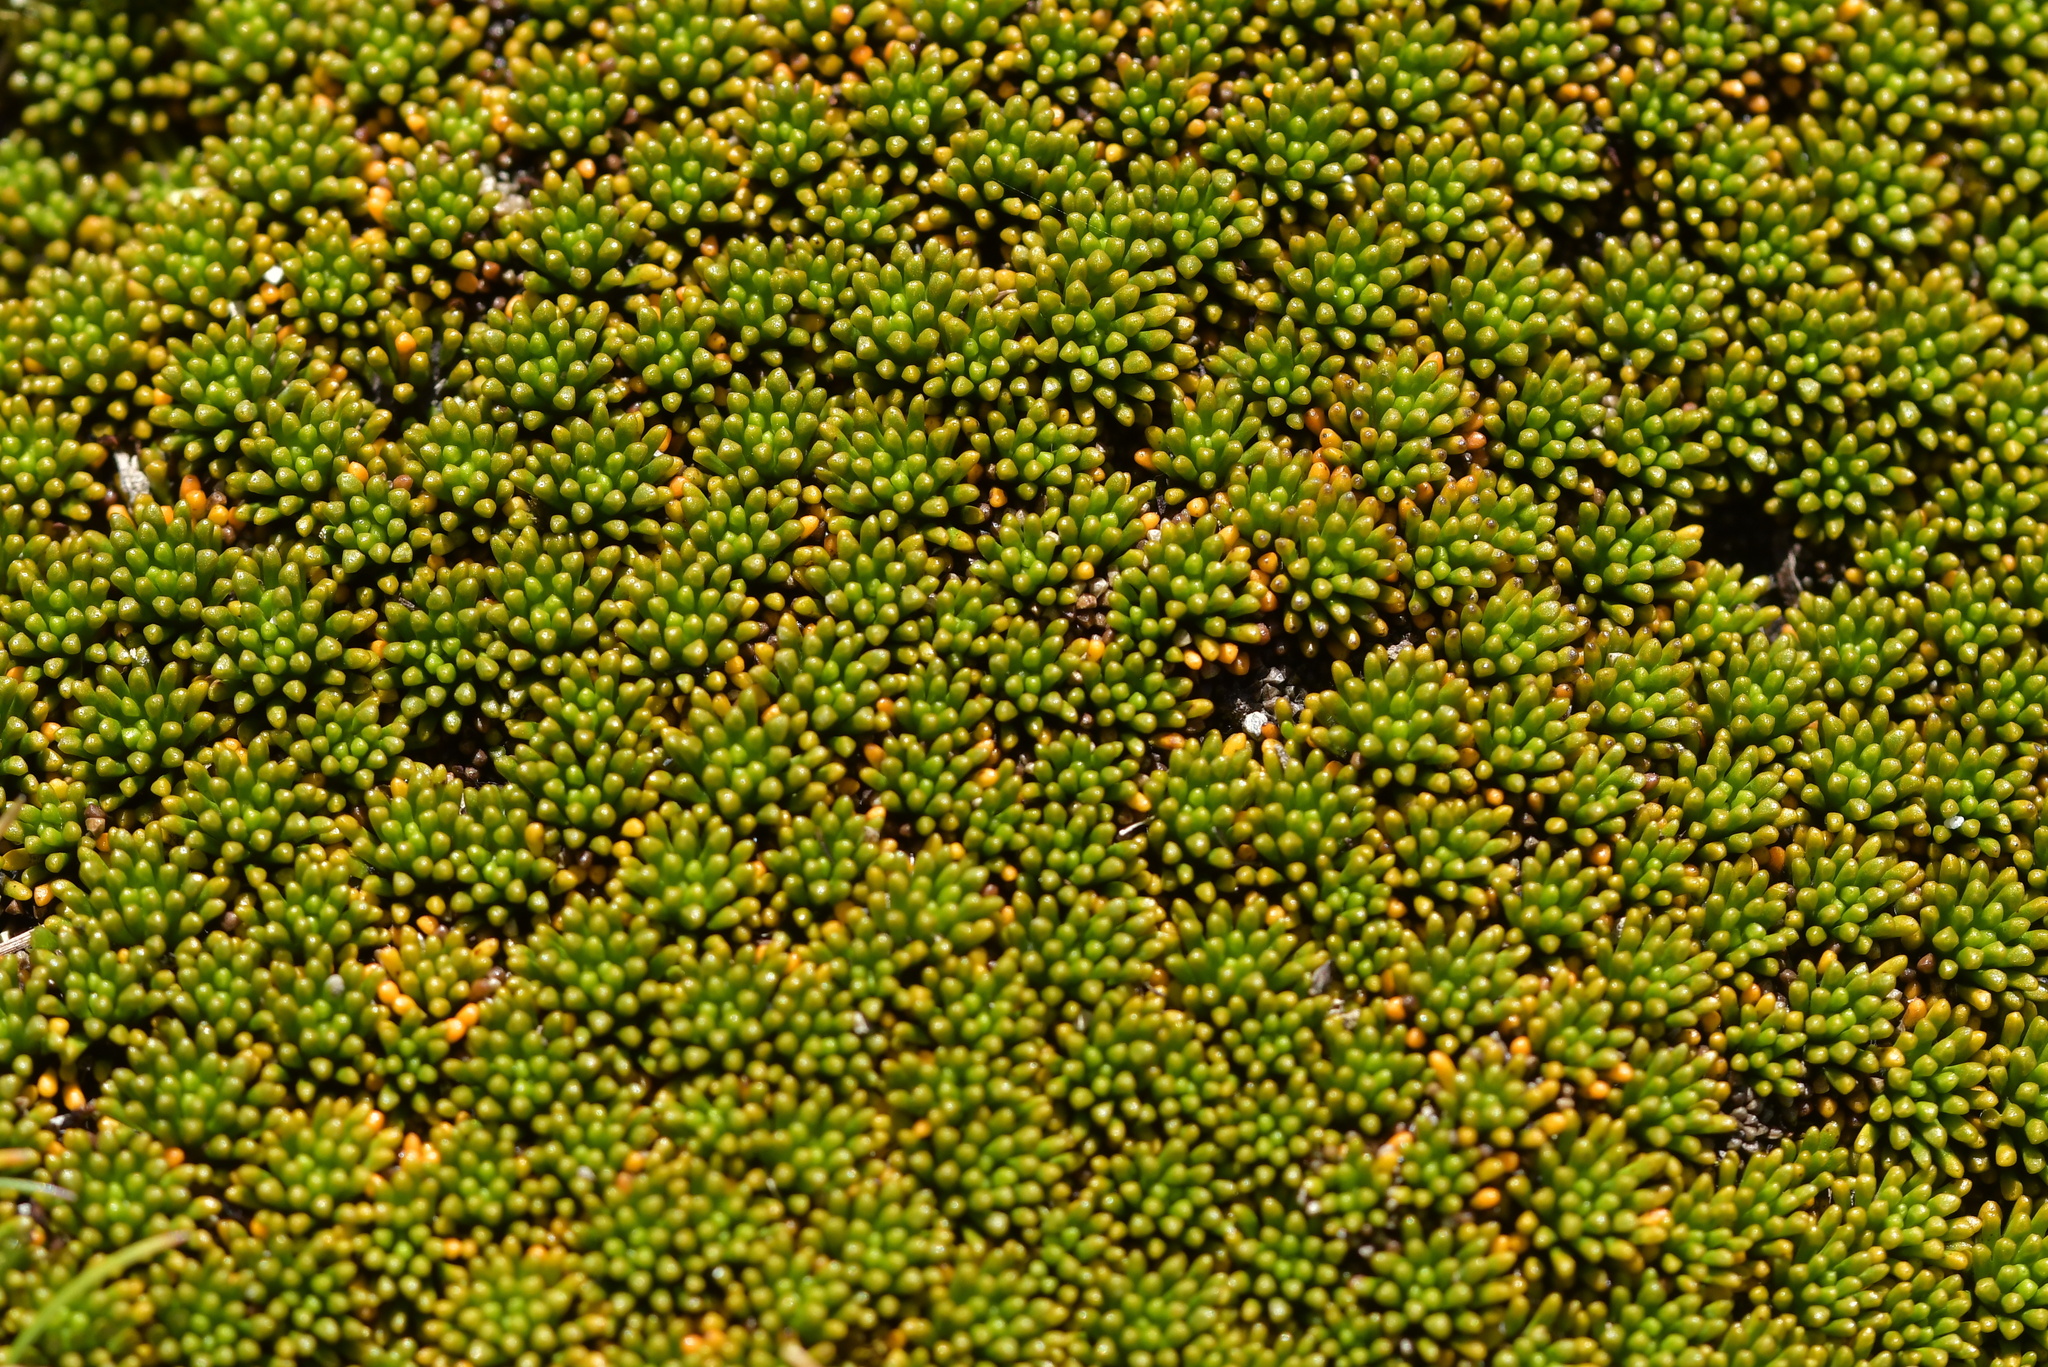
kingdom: Plantae
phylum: Tracheophyta
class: Magnoliopsida
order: Asterales
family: Stylidiaceae
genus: Phyllachne
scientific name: Phyllachne colensoi
